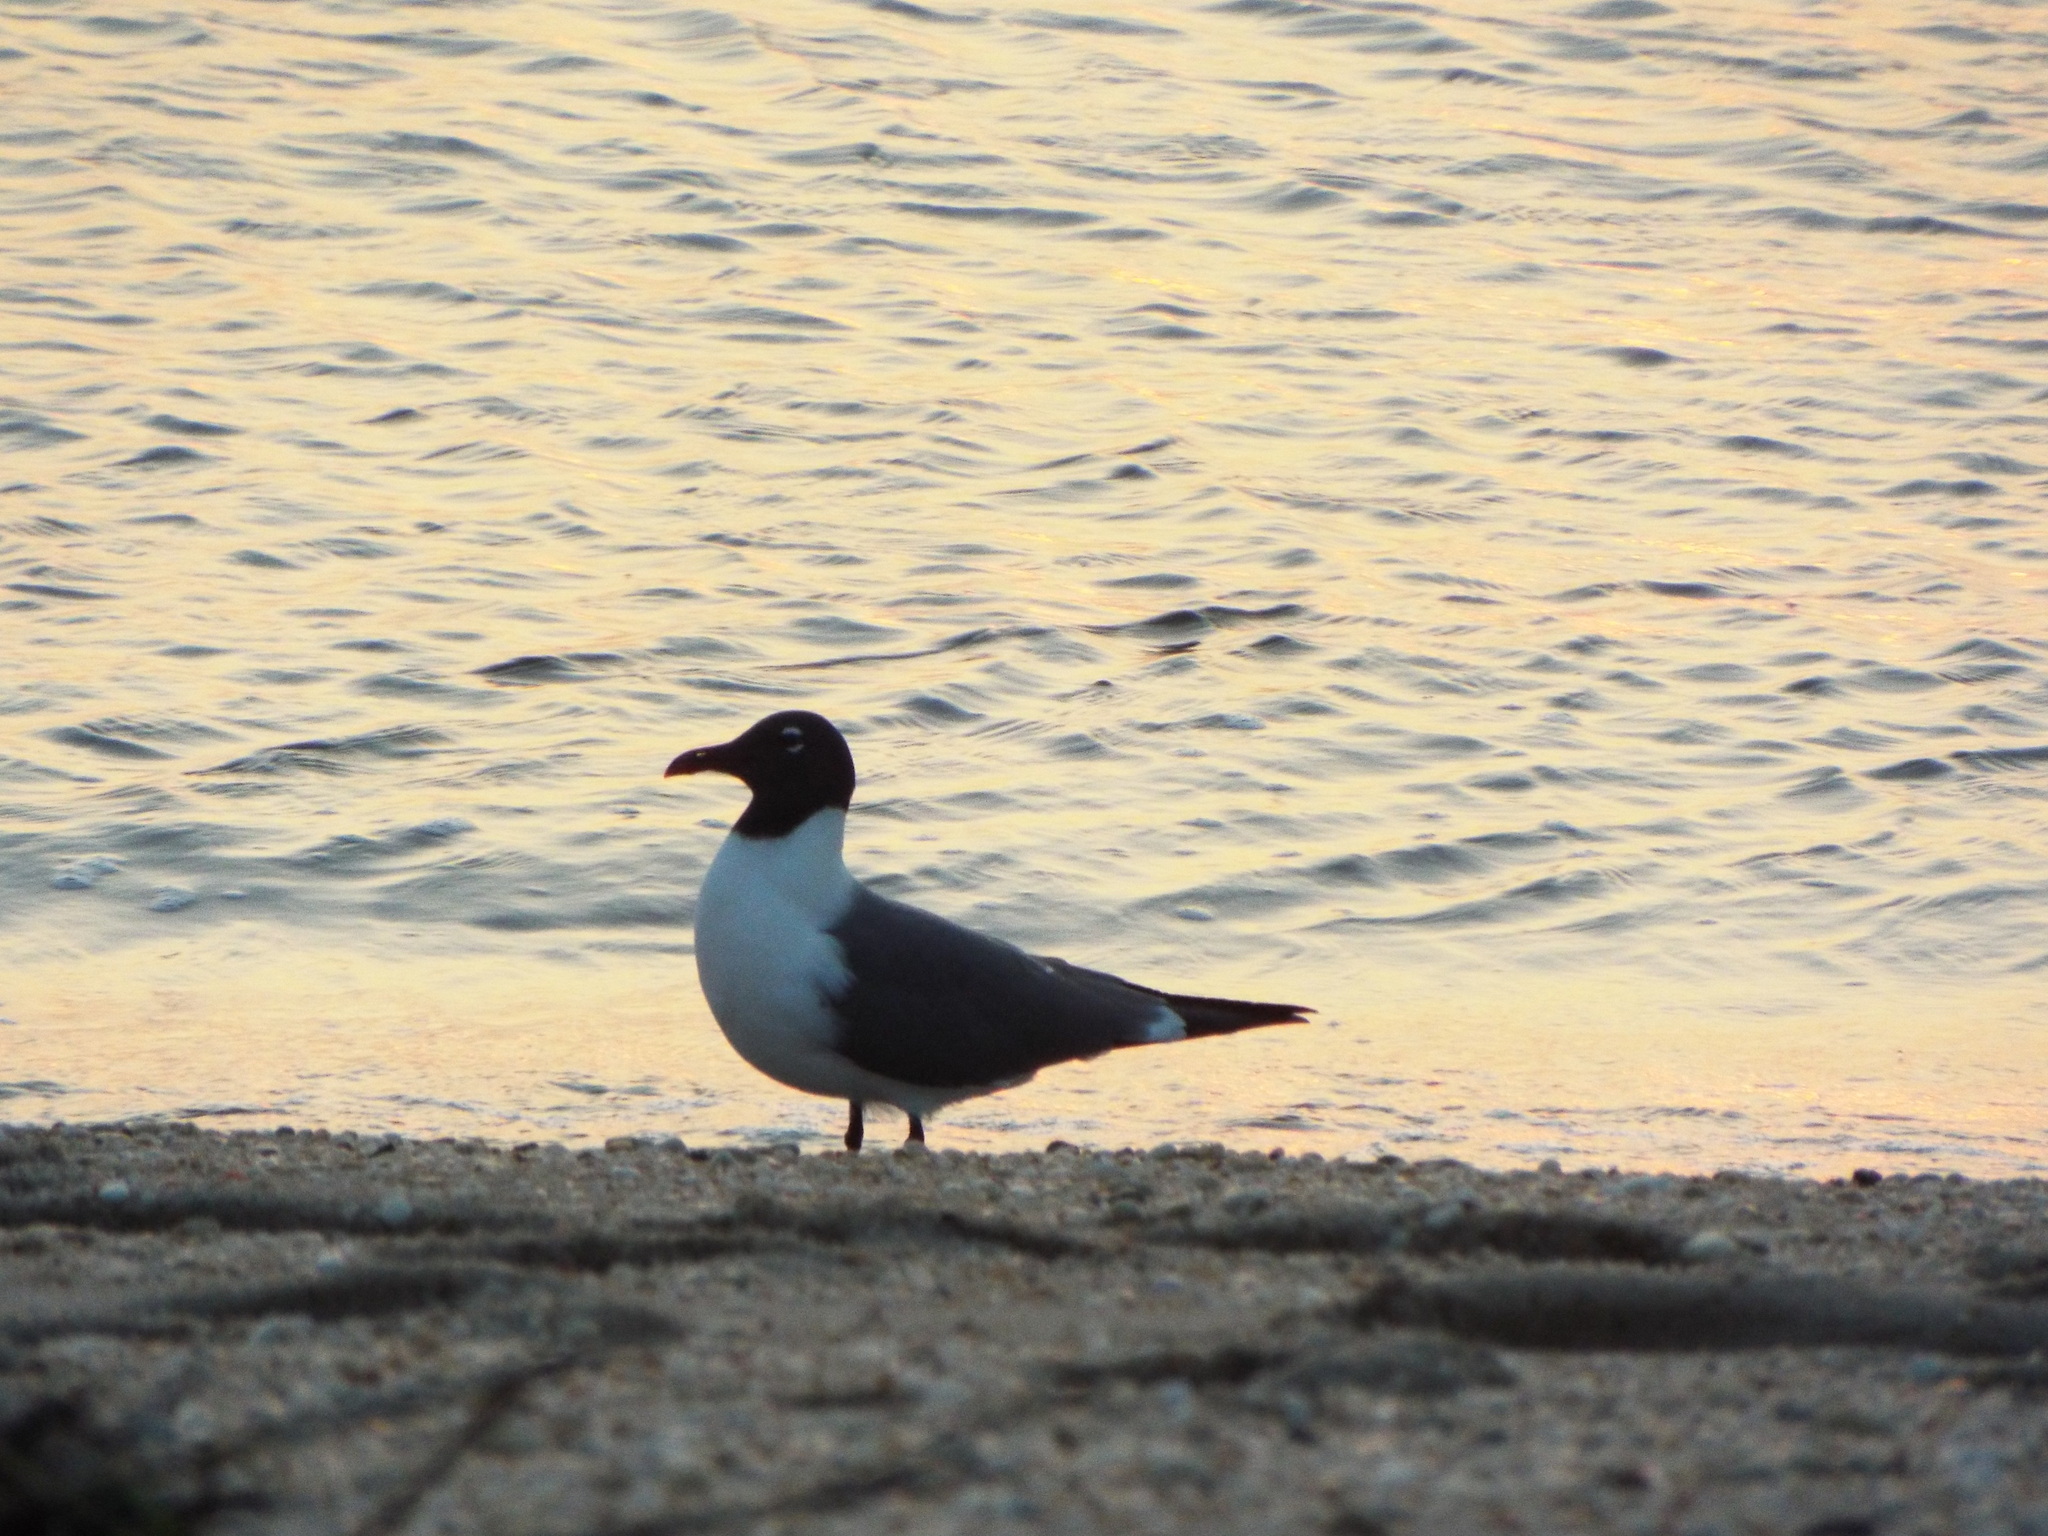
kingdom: Animalia
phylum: Chordata
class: Aves
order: Charadriiformes
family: Laridae
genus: Leucophaeus
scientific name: Leucophaeus atricilla
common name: Laughing gull
